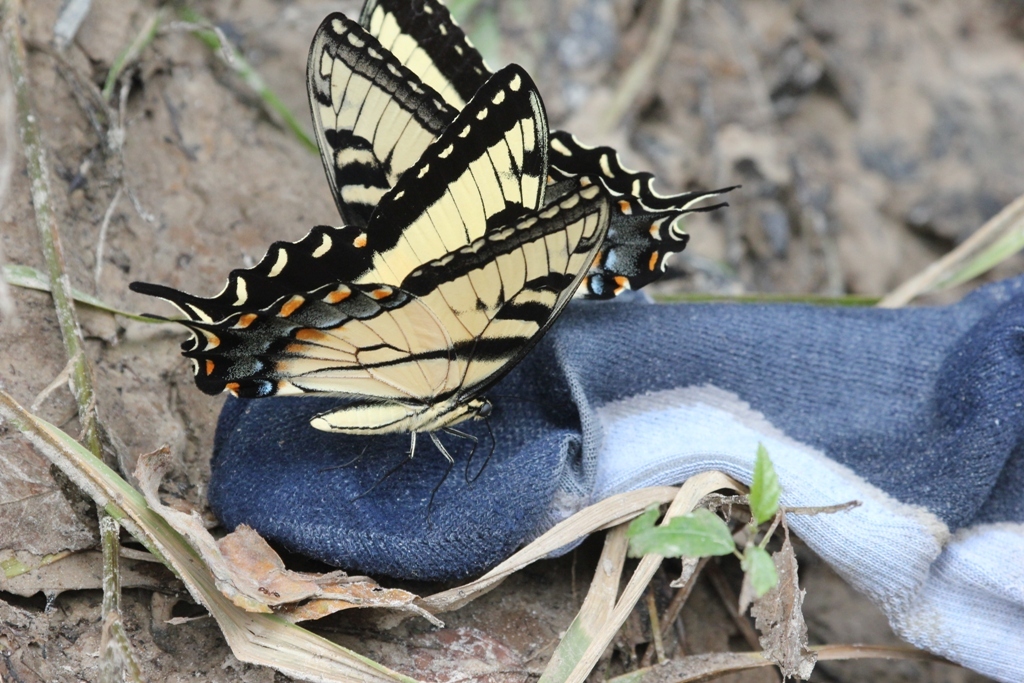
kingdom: Animalia
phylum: Arthropoda
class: Insecta
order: Lepidoptera
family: Papilionidae
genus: Papilio
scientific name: Papilio glaucus
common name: Tiger swallowtail
